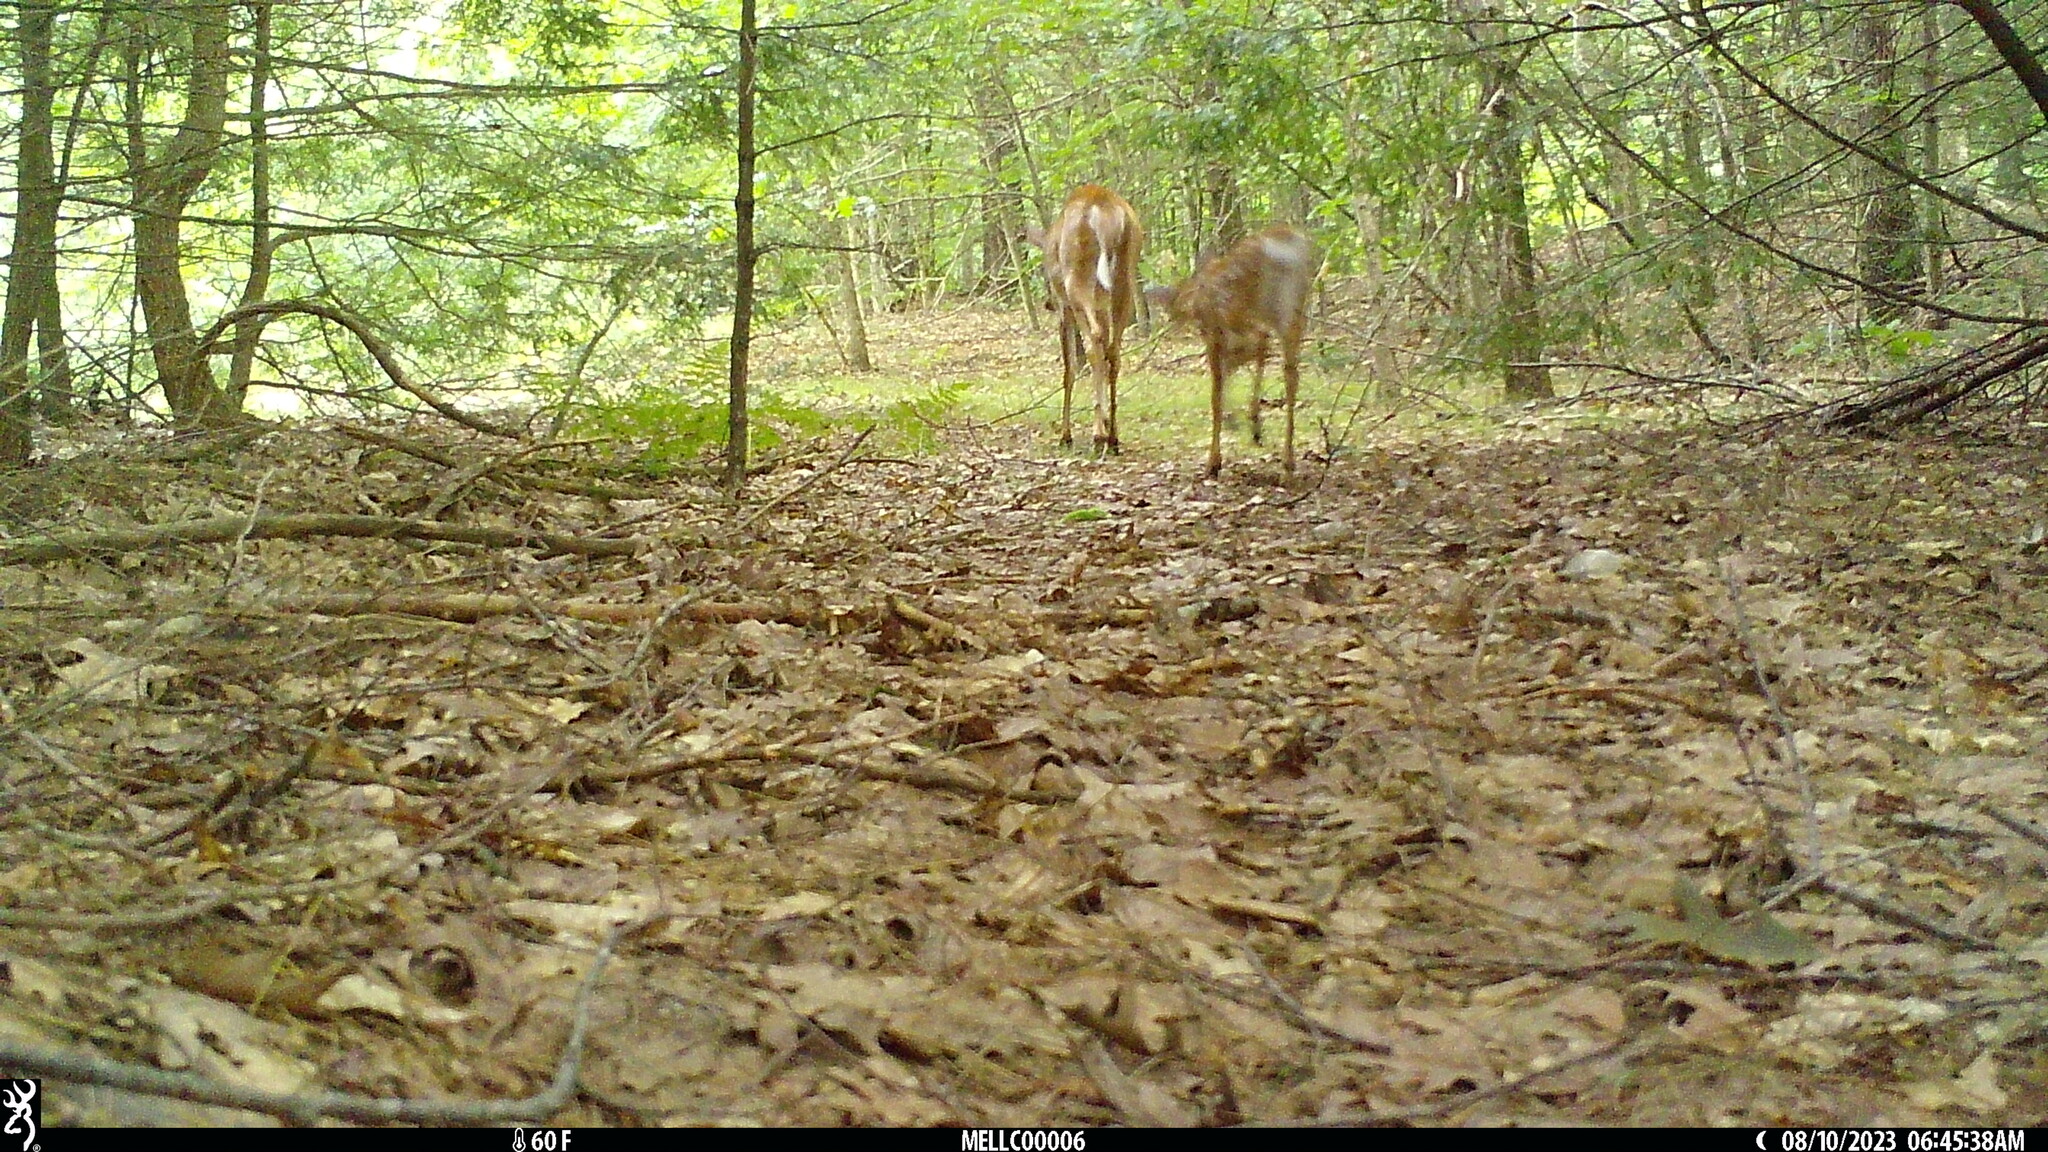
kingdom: Animalia
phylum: Chordata
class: Mammalia
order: Artiodactyla
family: Cervidae
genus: Odocoileus
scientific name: Odocoileus virginianus
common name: White-tailed deer
